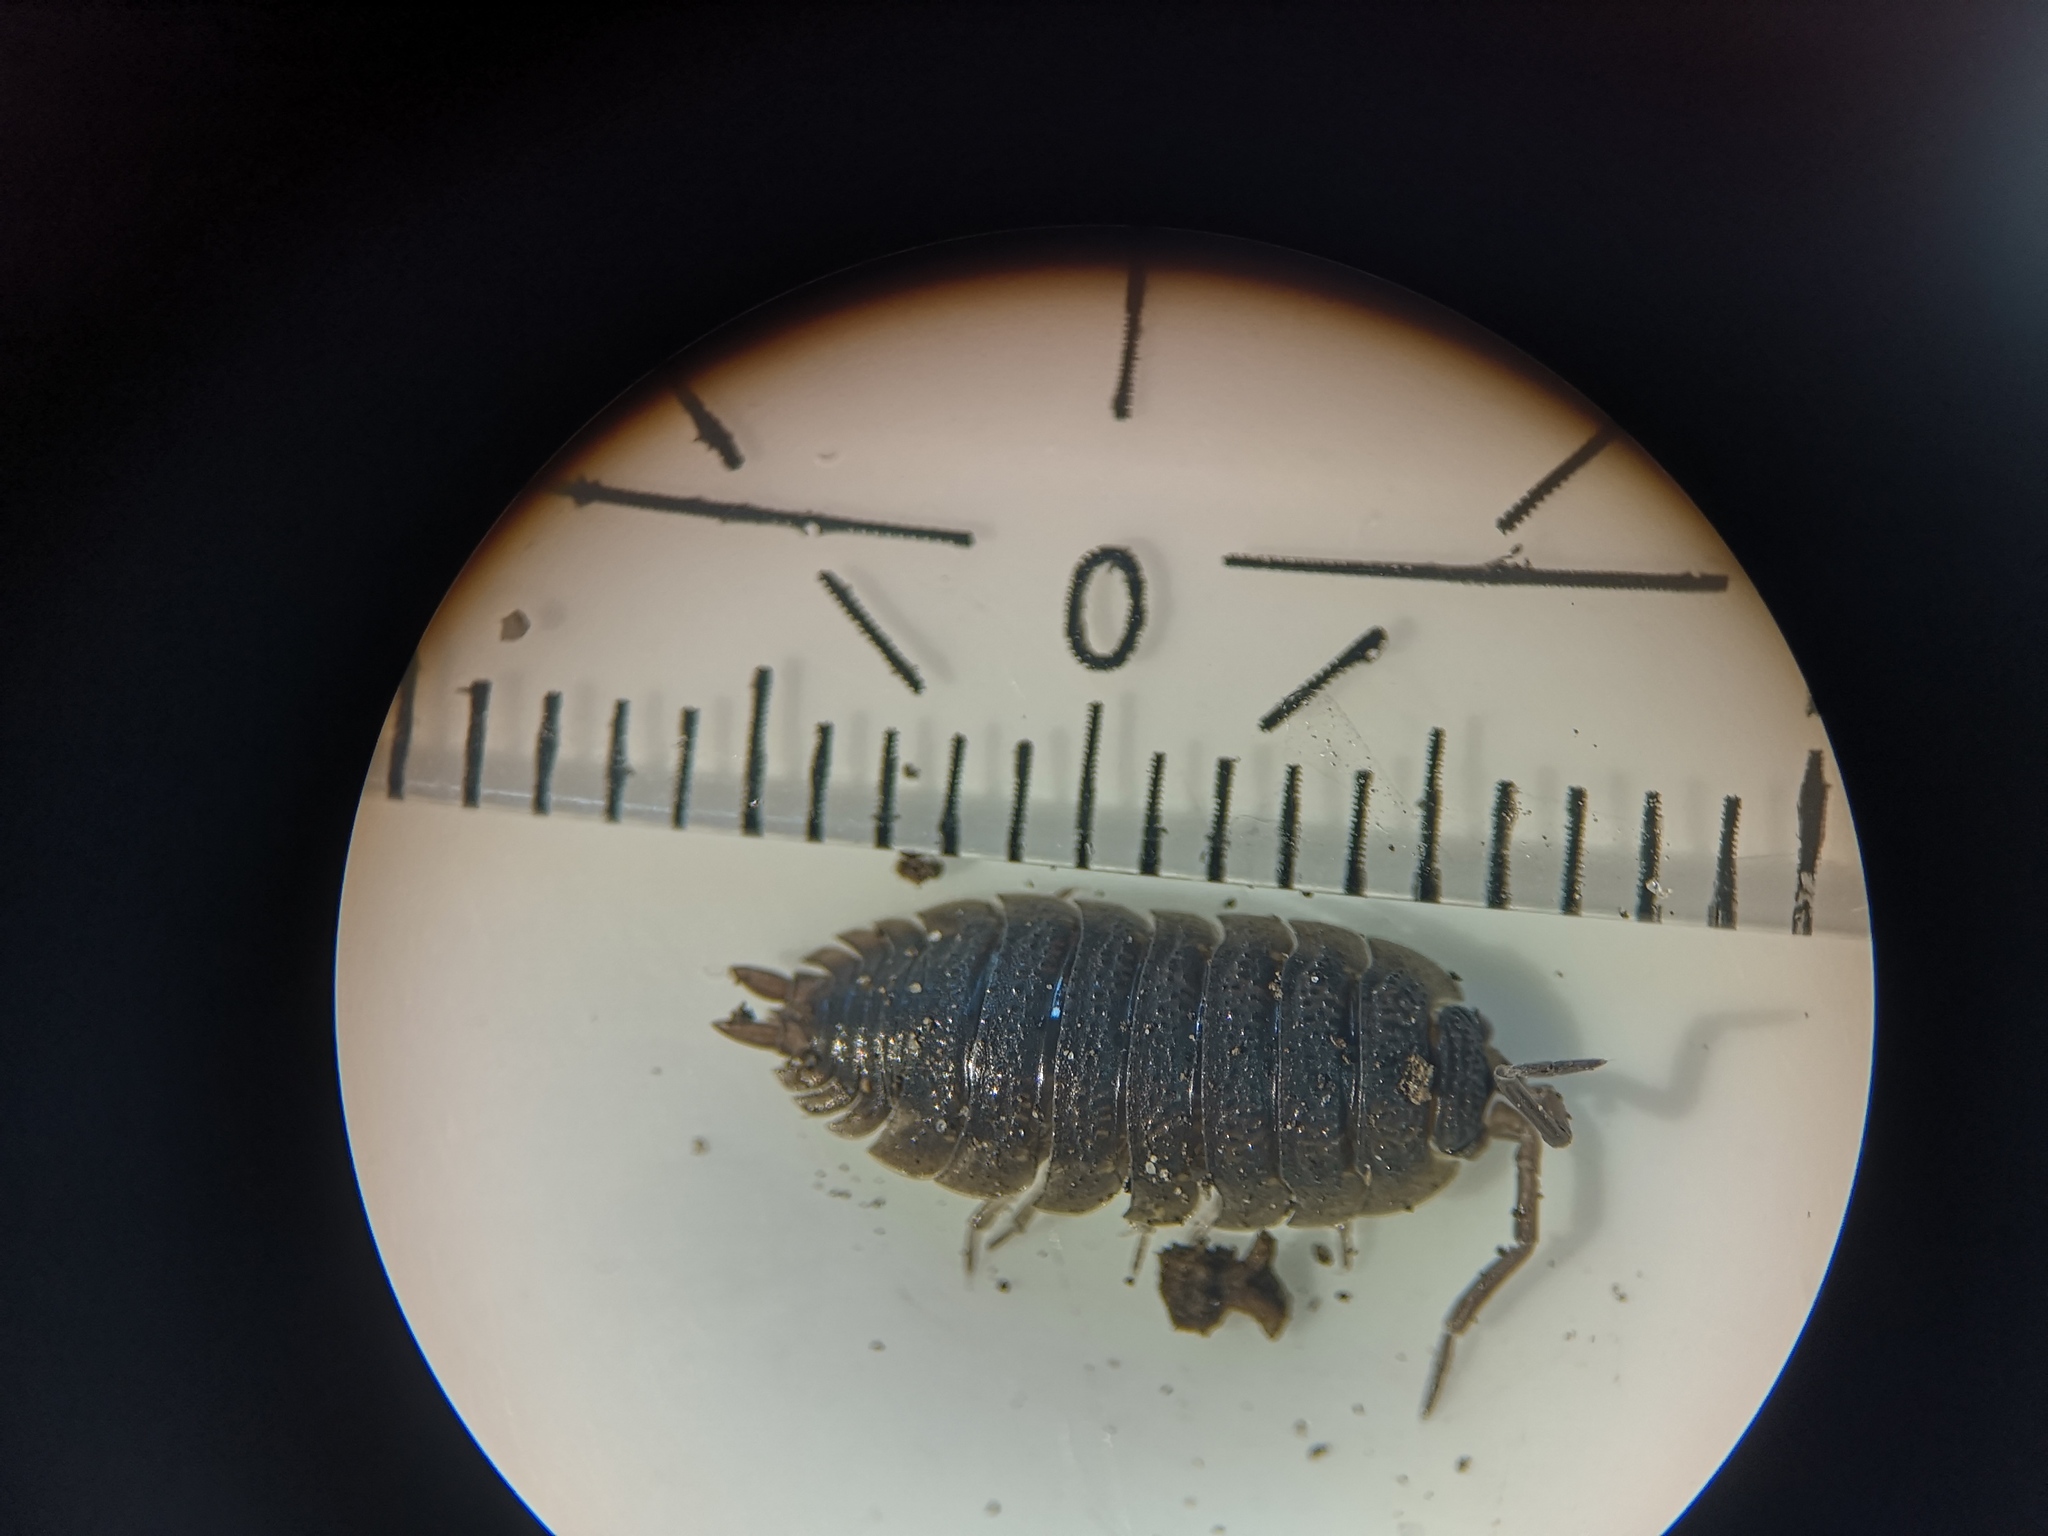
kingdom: Animalia
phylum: Arthropoda
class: Malacostraca
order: Isopoda
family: Porcellionidae
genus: Porcellio
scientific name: Porcellio scaber
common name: Common rough woodlouse
